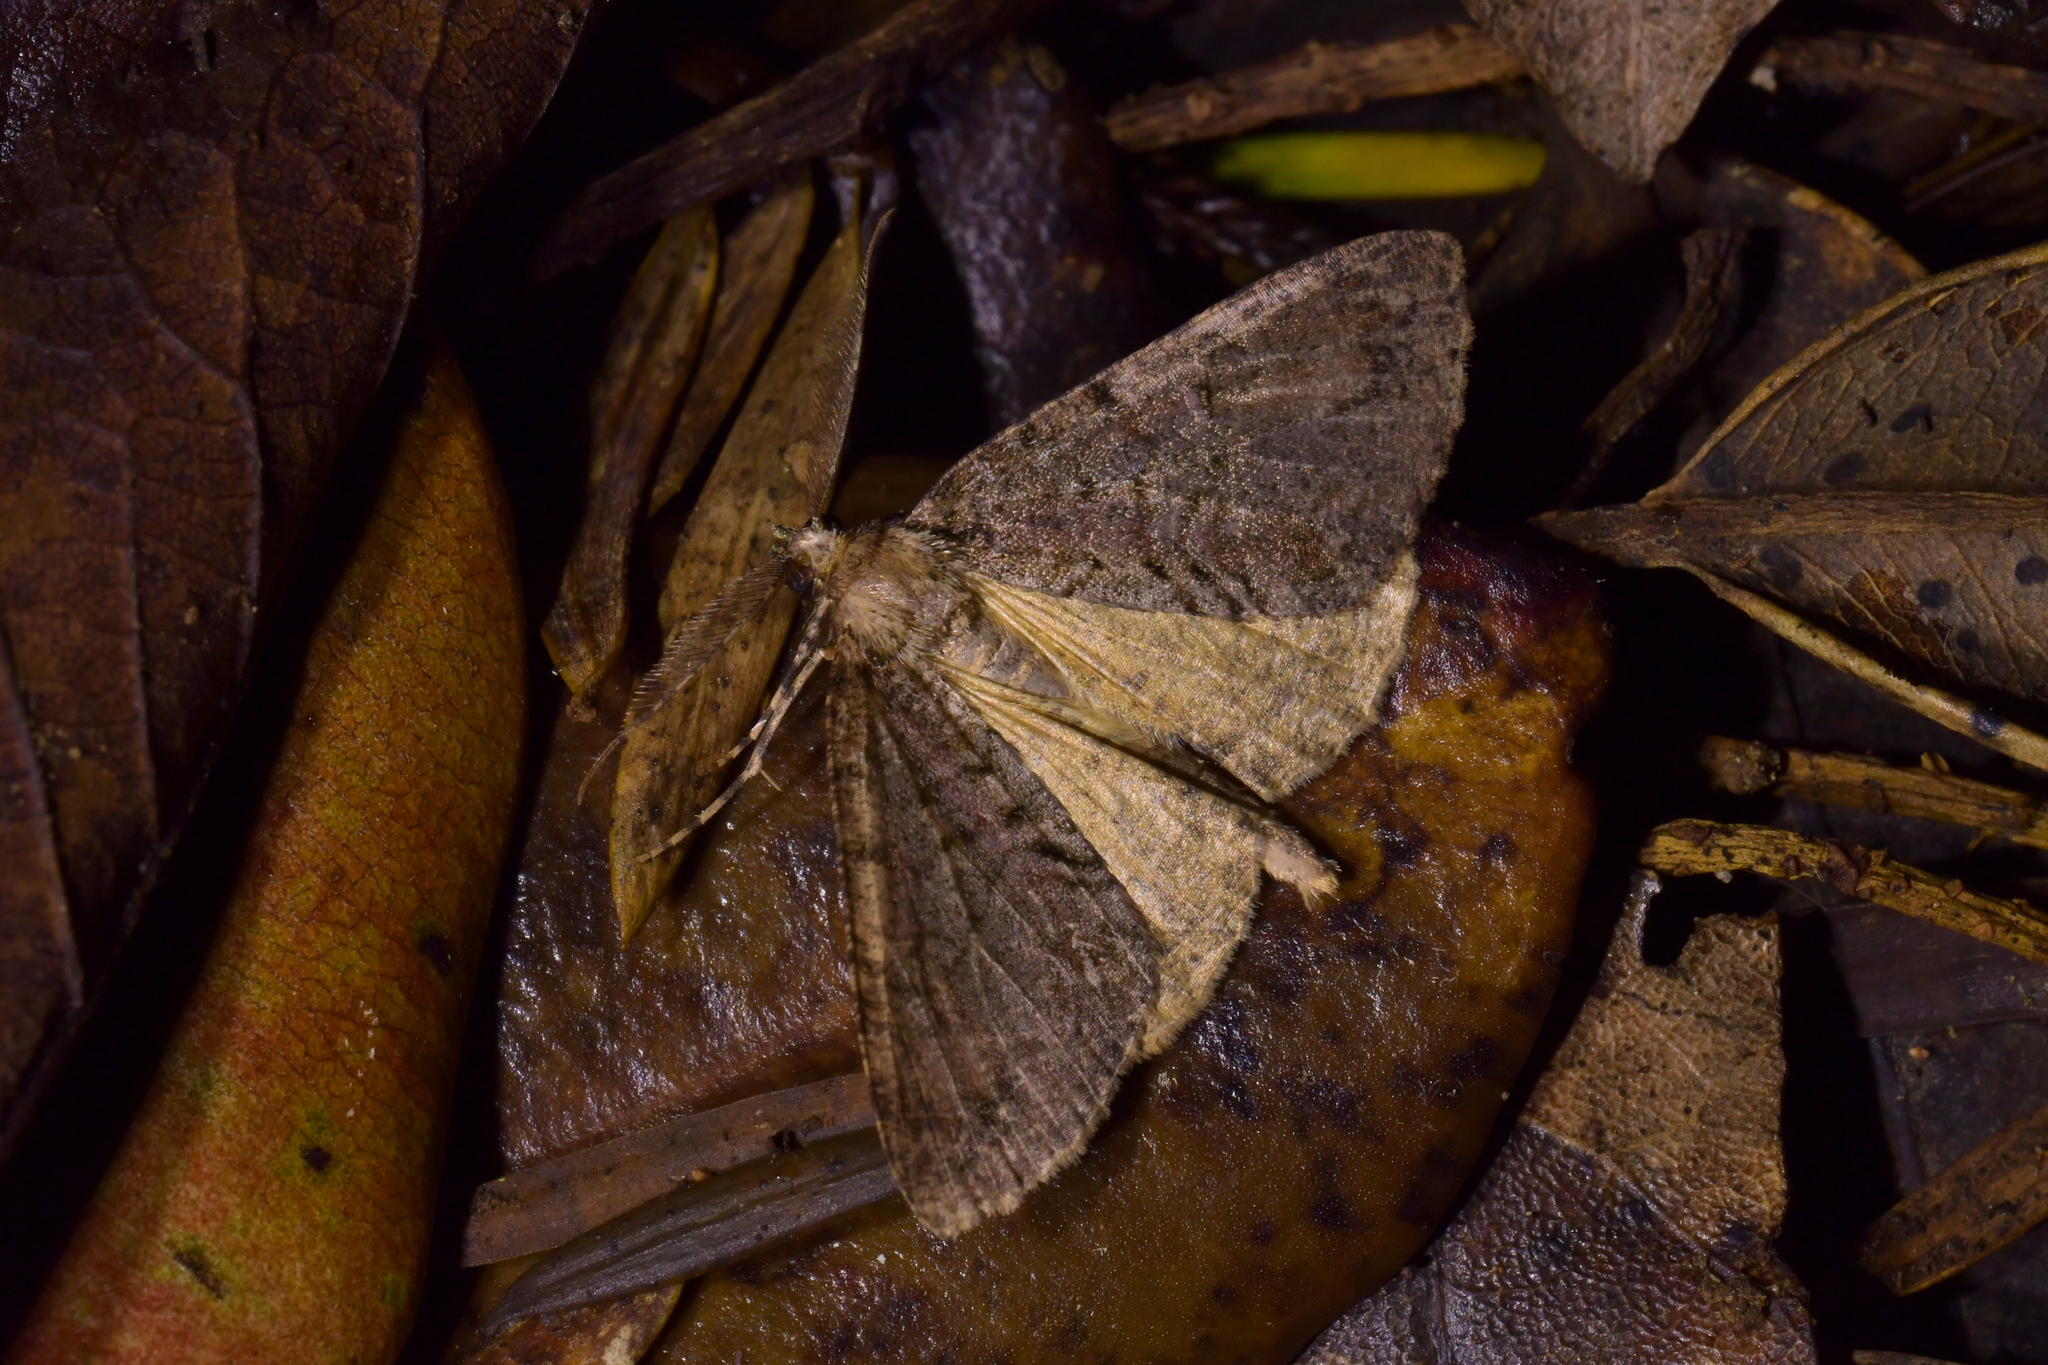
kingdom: Animalia
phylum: Arthropoda
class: Insecta
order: Lepidoptera
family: Geometridae
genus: Pseudocoremia
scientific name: Pseudocoremia suavis
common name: Common forest looper
